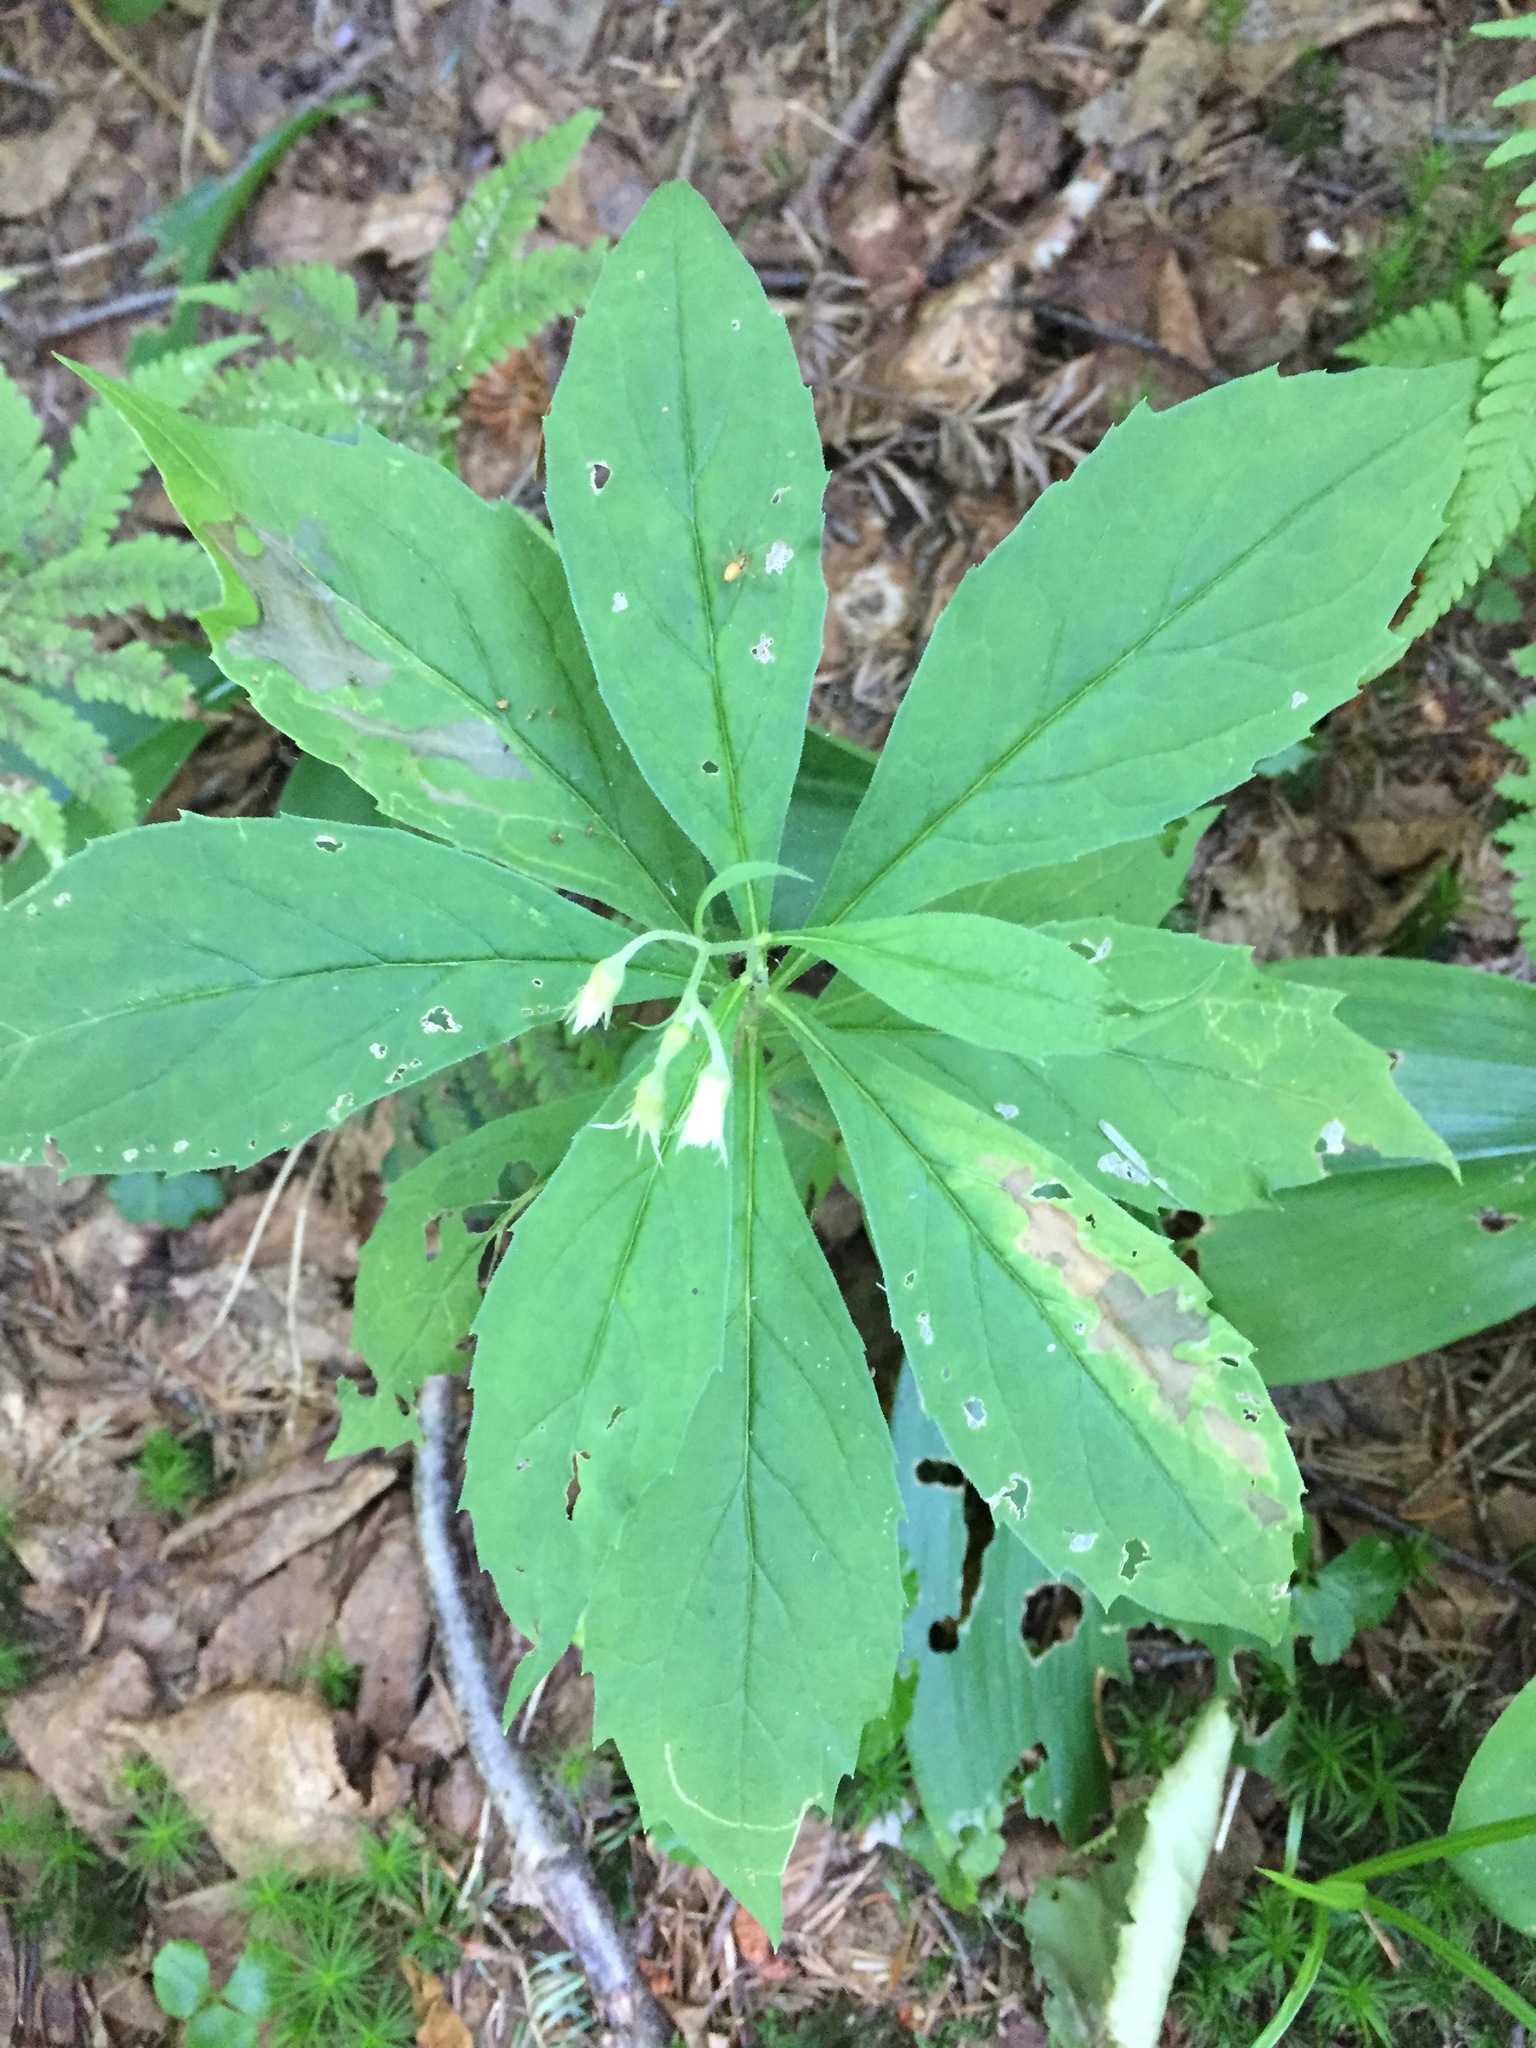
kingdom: Plantae
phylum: Tracheophyta
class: Magnoliopsida
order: Asterales
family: Asteraceae
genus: Oclemena
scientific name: Oclemena acuminata
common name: Mountain aster
